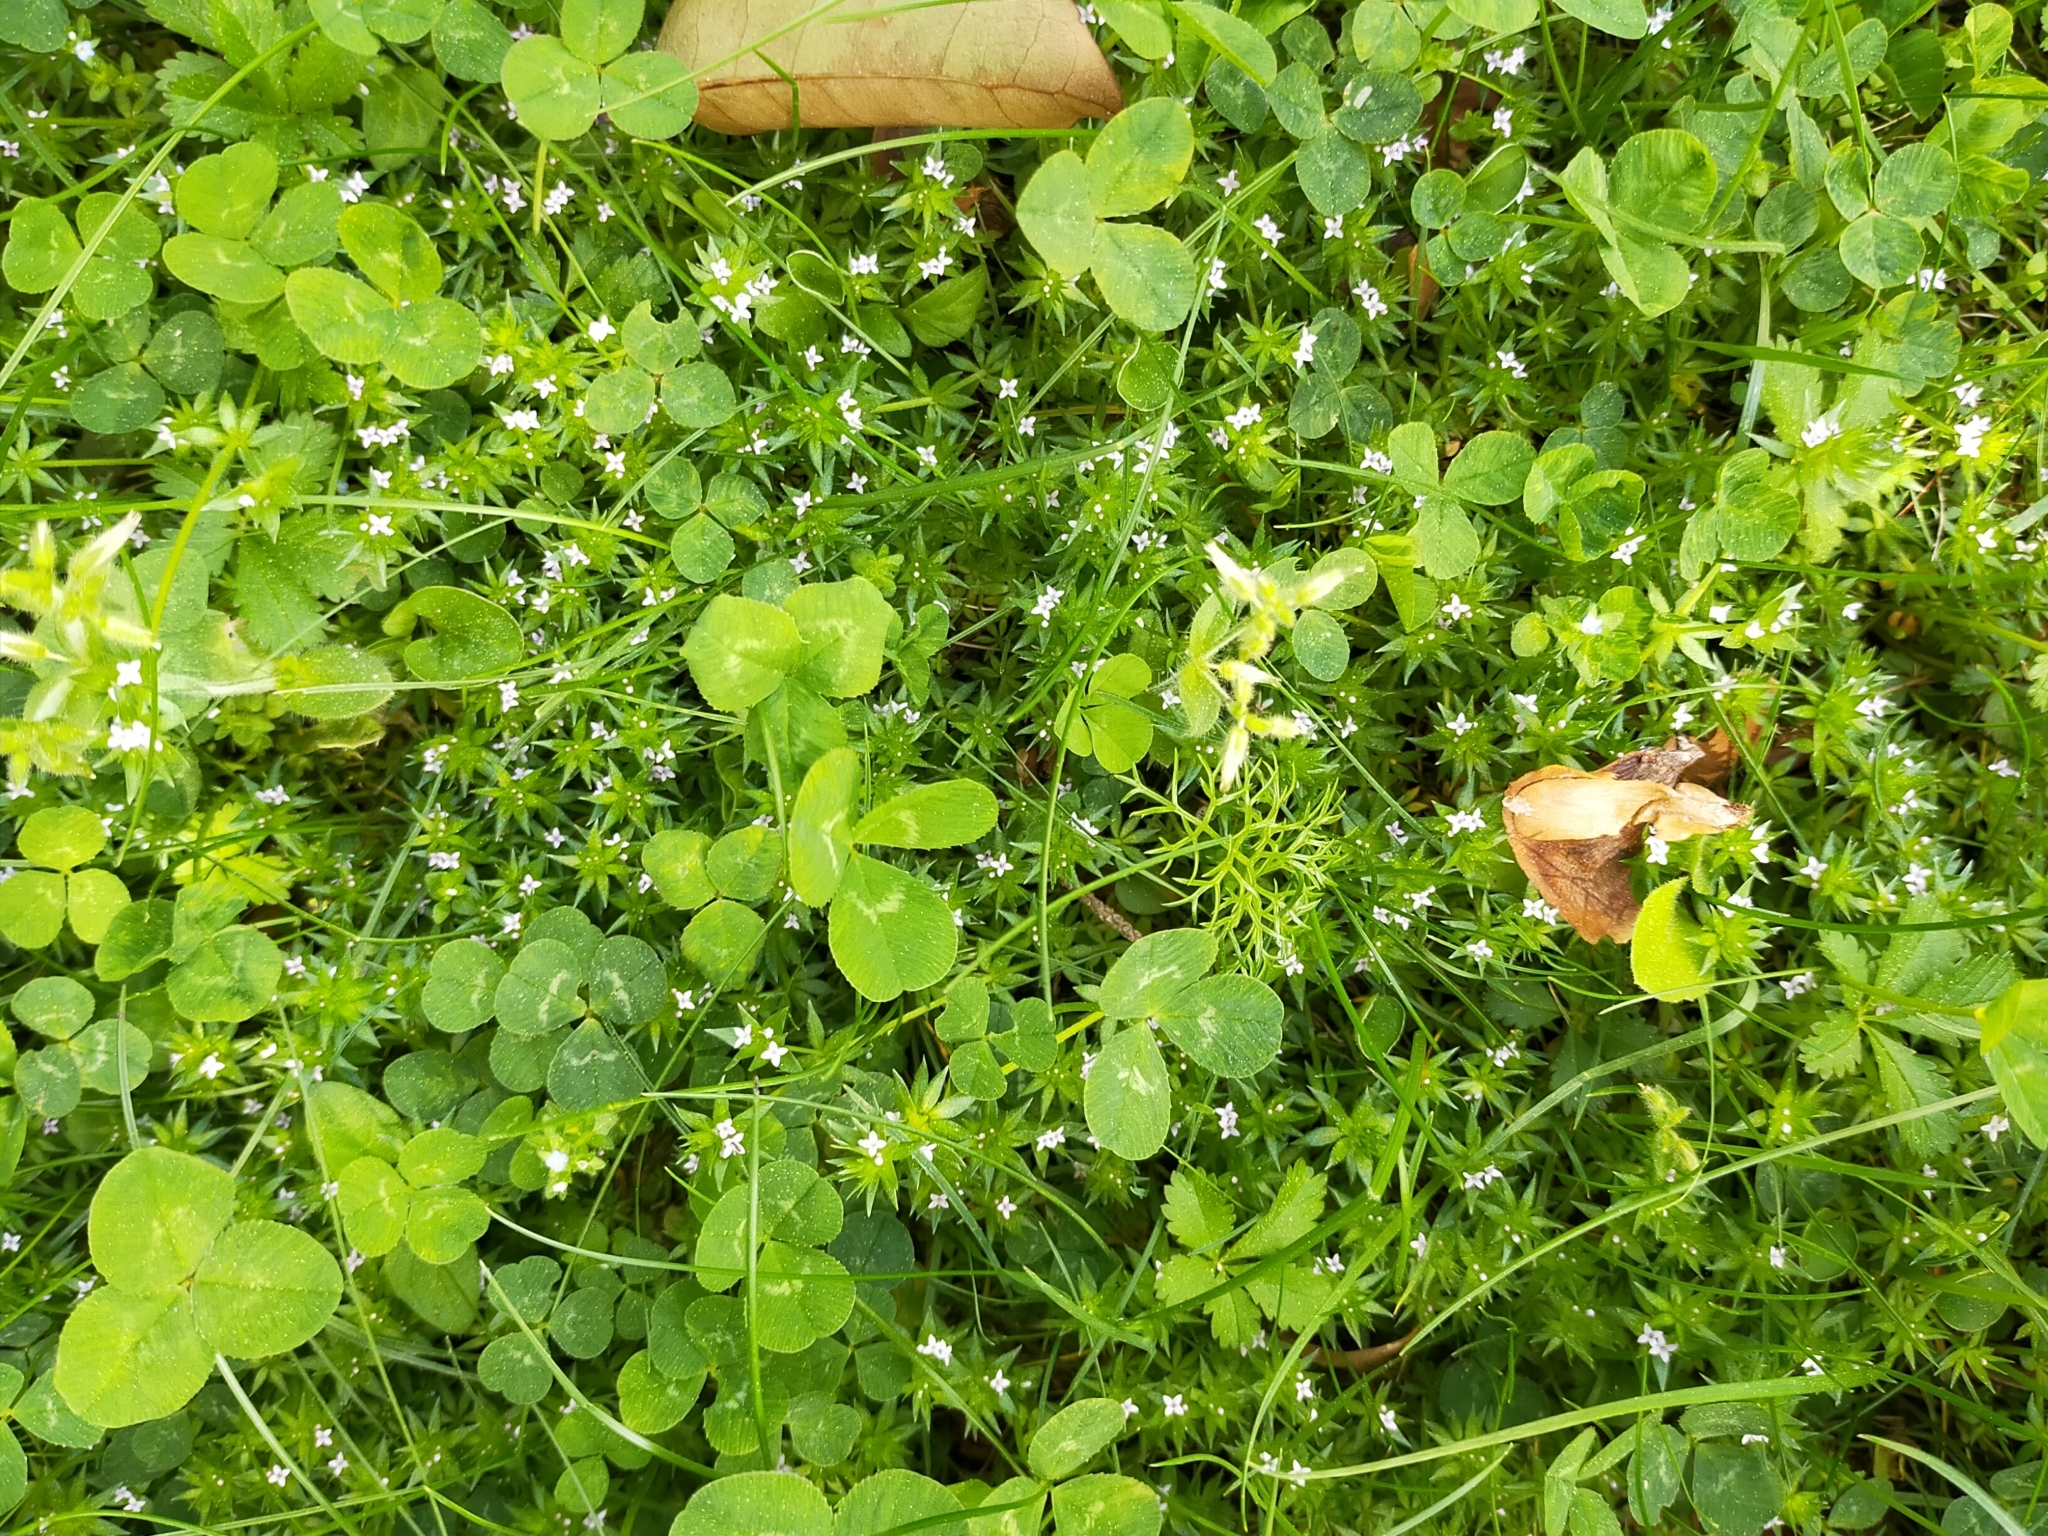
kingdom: Plantae
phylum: Tracheophyta
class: Magnoliopsida
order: Gentianales
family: Rubiaceae
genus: Sherardia
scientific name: Sherardia arvensis
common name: Field madder
